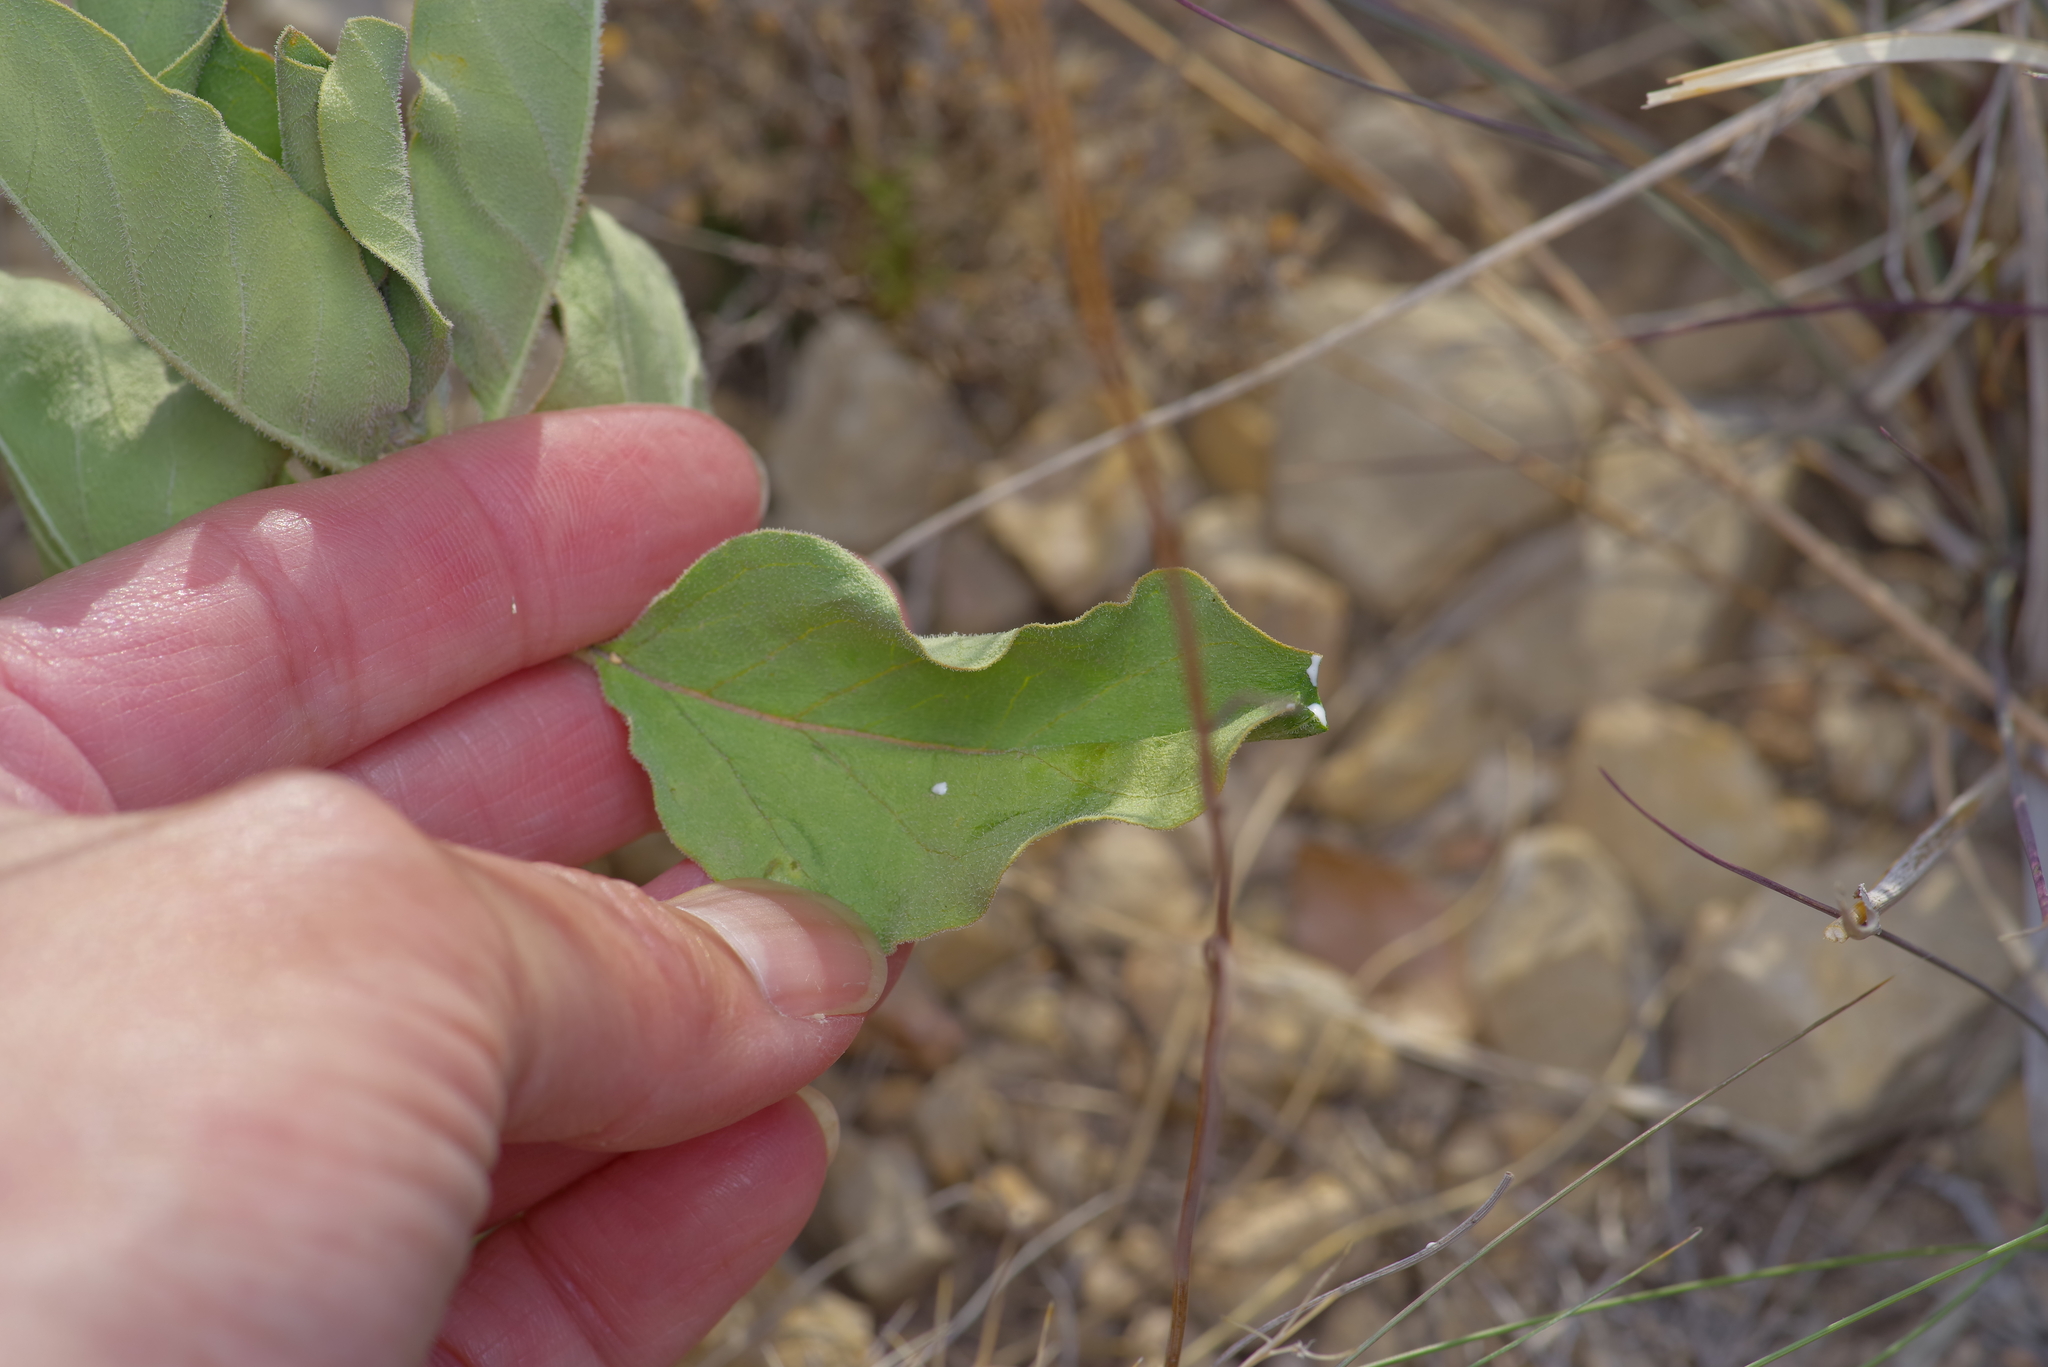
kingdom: Plantae
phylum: Tracheophyta
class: Magnoliopsida
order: Gentianales
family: Apocynaceae
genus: Asclepias
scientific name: Asclepias oenotheroides
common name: Zizotes milkweed
